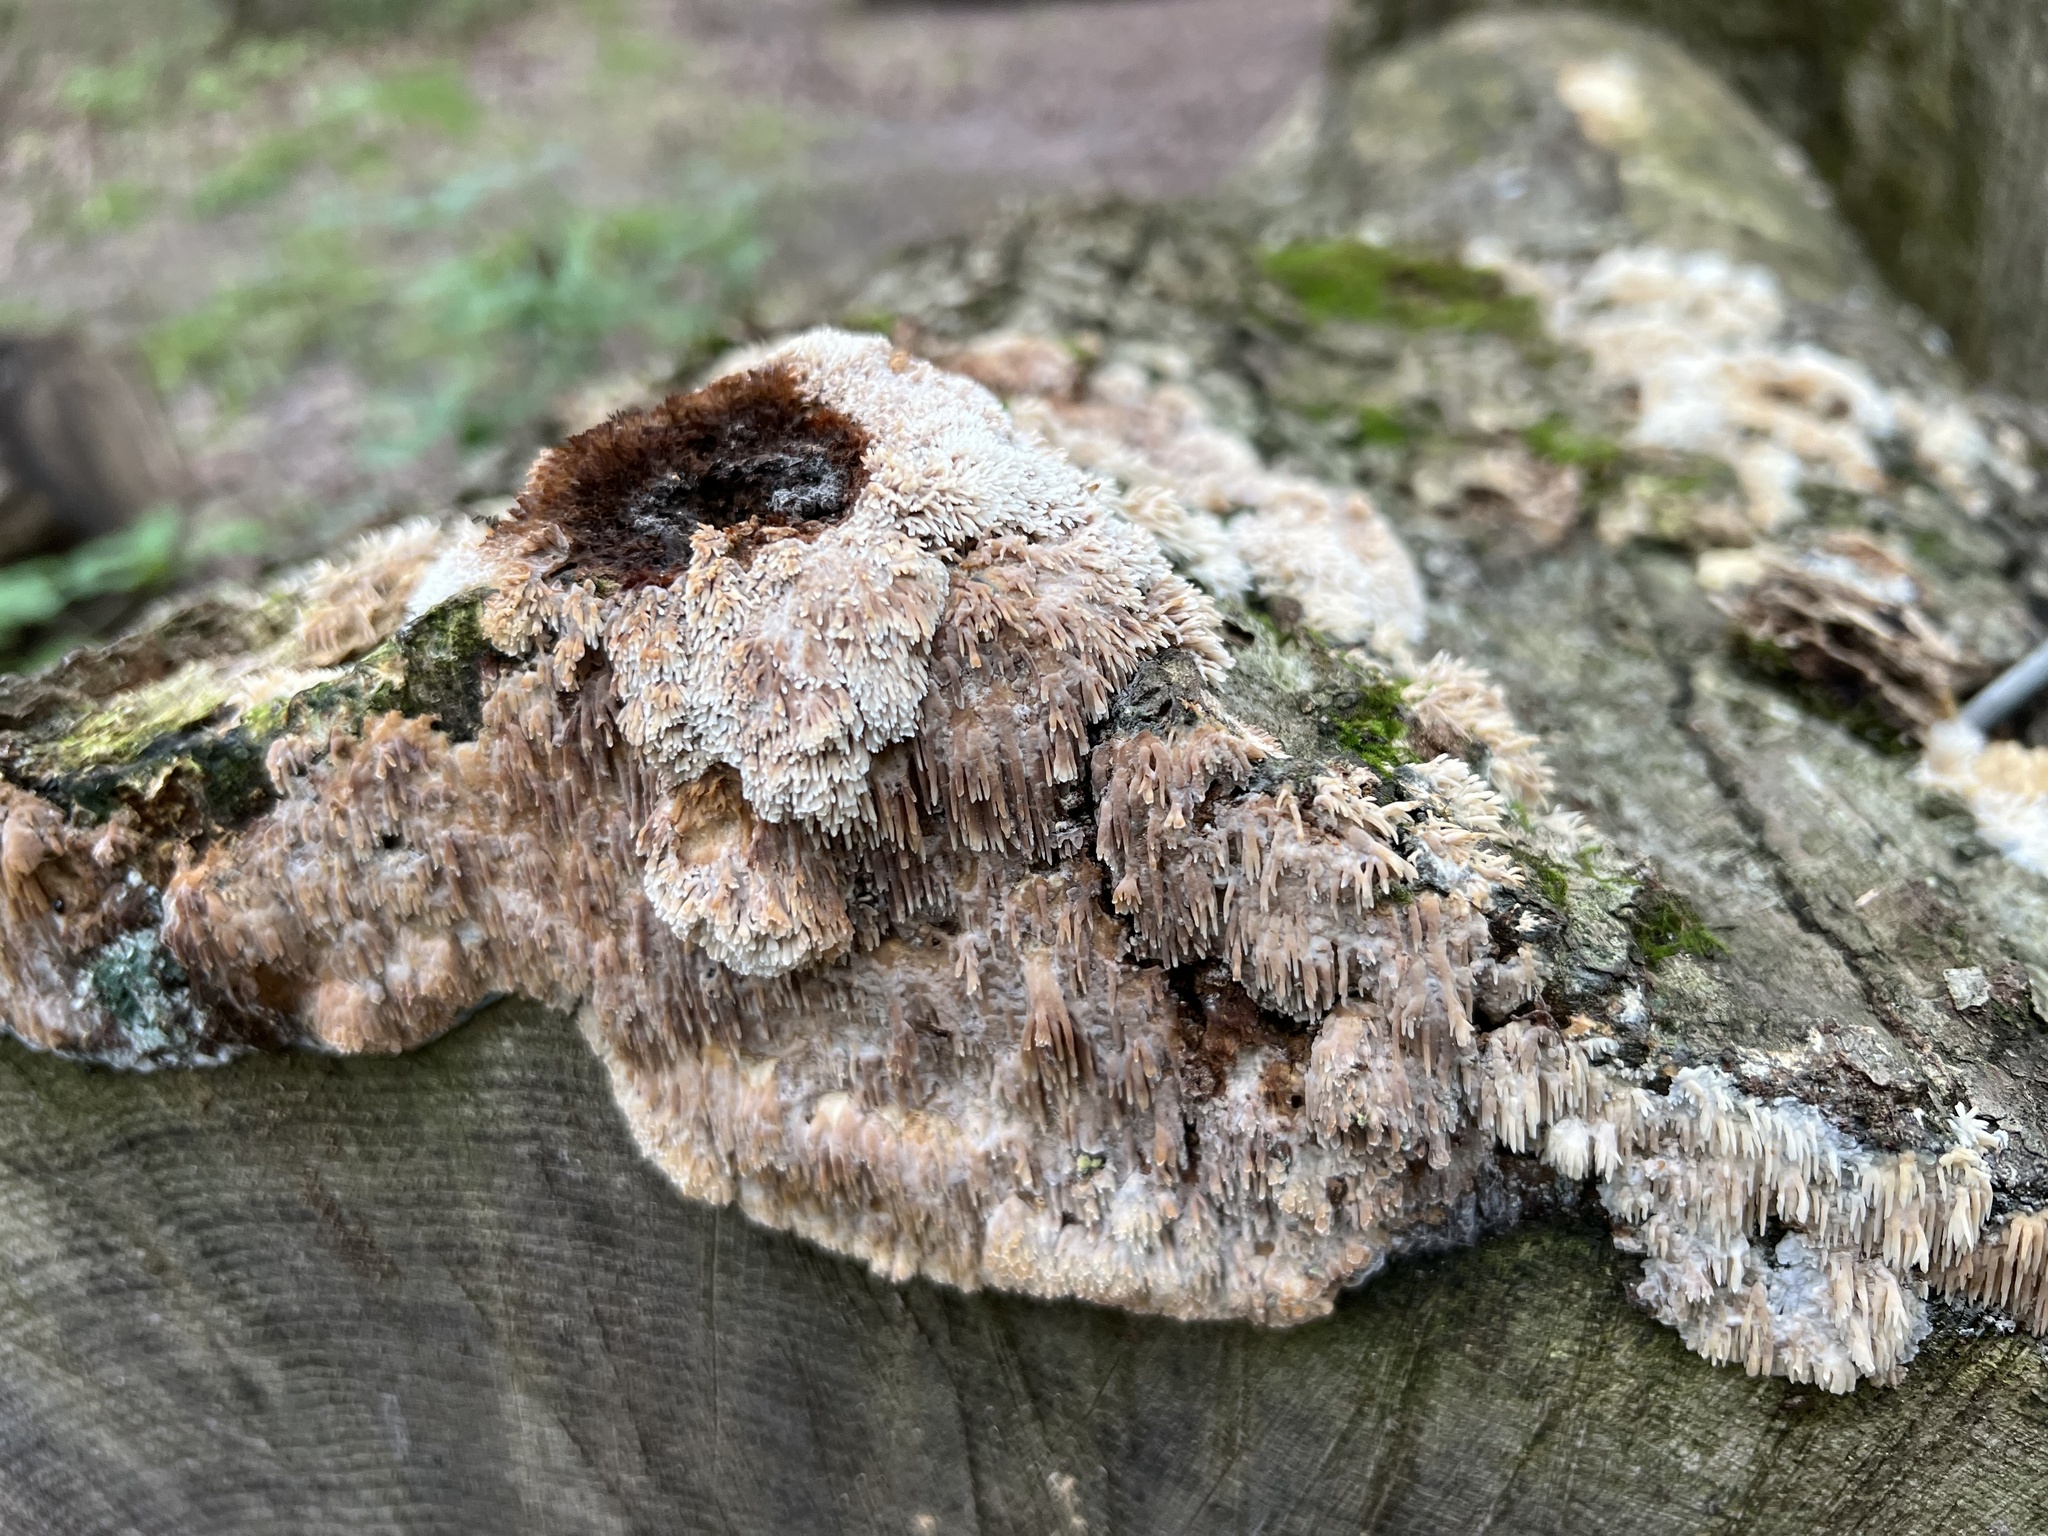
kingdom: Fungi
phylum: Basidiomycota
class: Agaricomycetes
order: Agaricales
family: Radulomycetaceae
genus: Radulomyces
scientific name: Radulomyces copelandii
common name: Asian beauty
